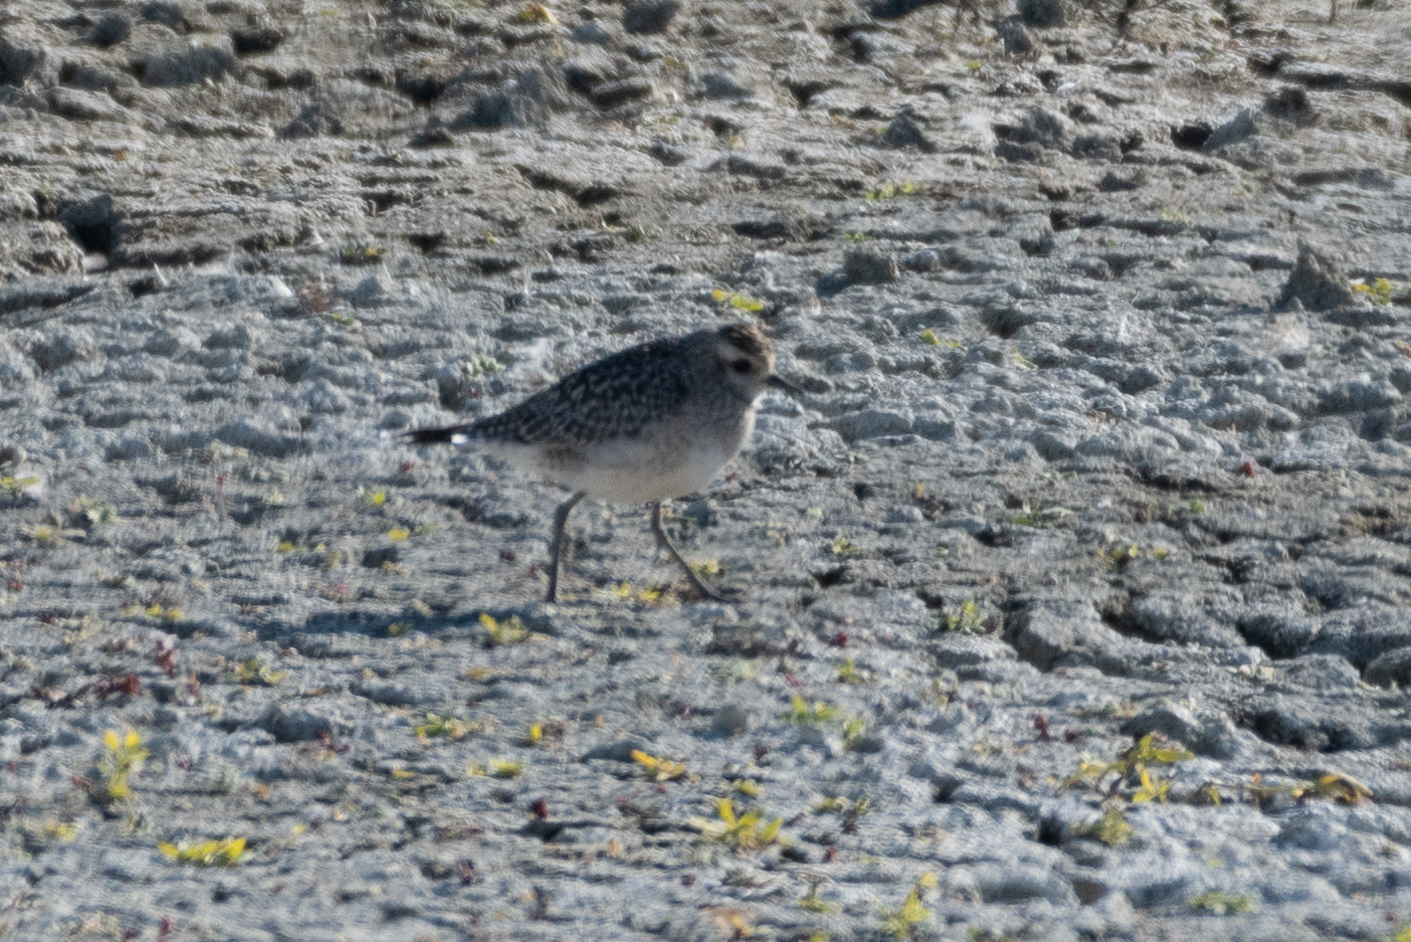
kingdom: Animalia
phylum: Chordata
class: Aves
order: Charadriiformes
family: Charadriidae
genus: Pluvialis
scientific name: Pluvialis dominica
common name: American golden plover
